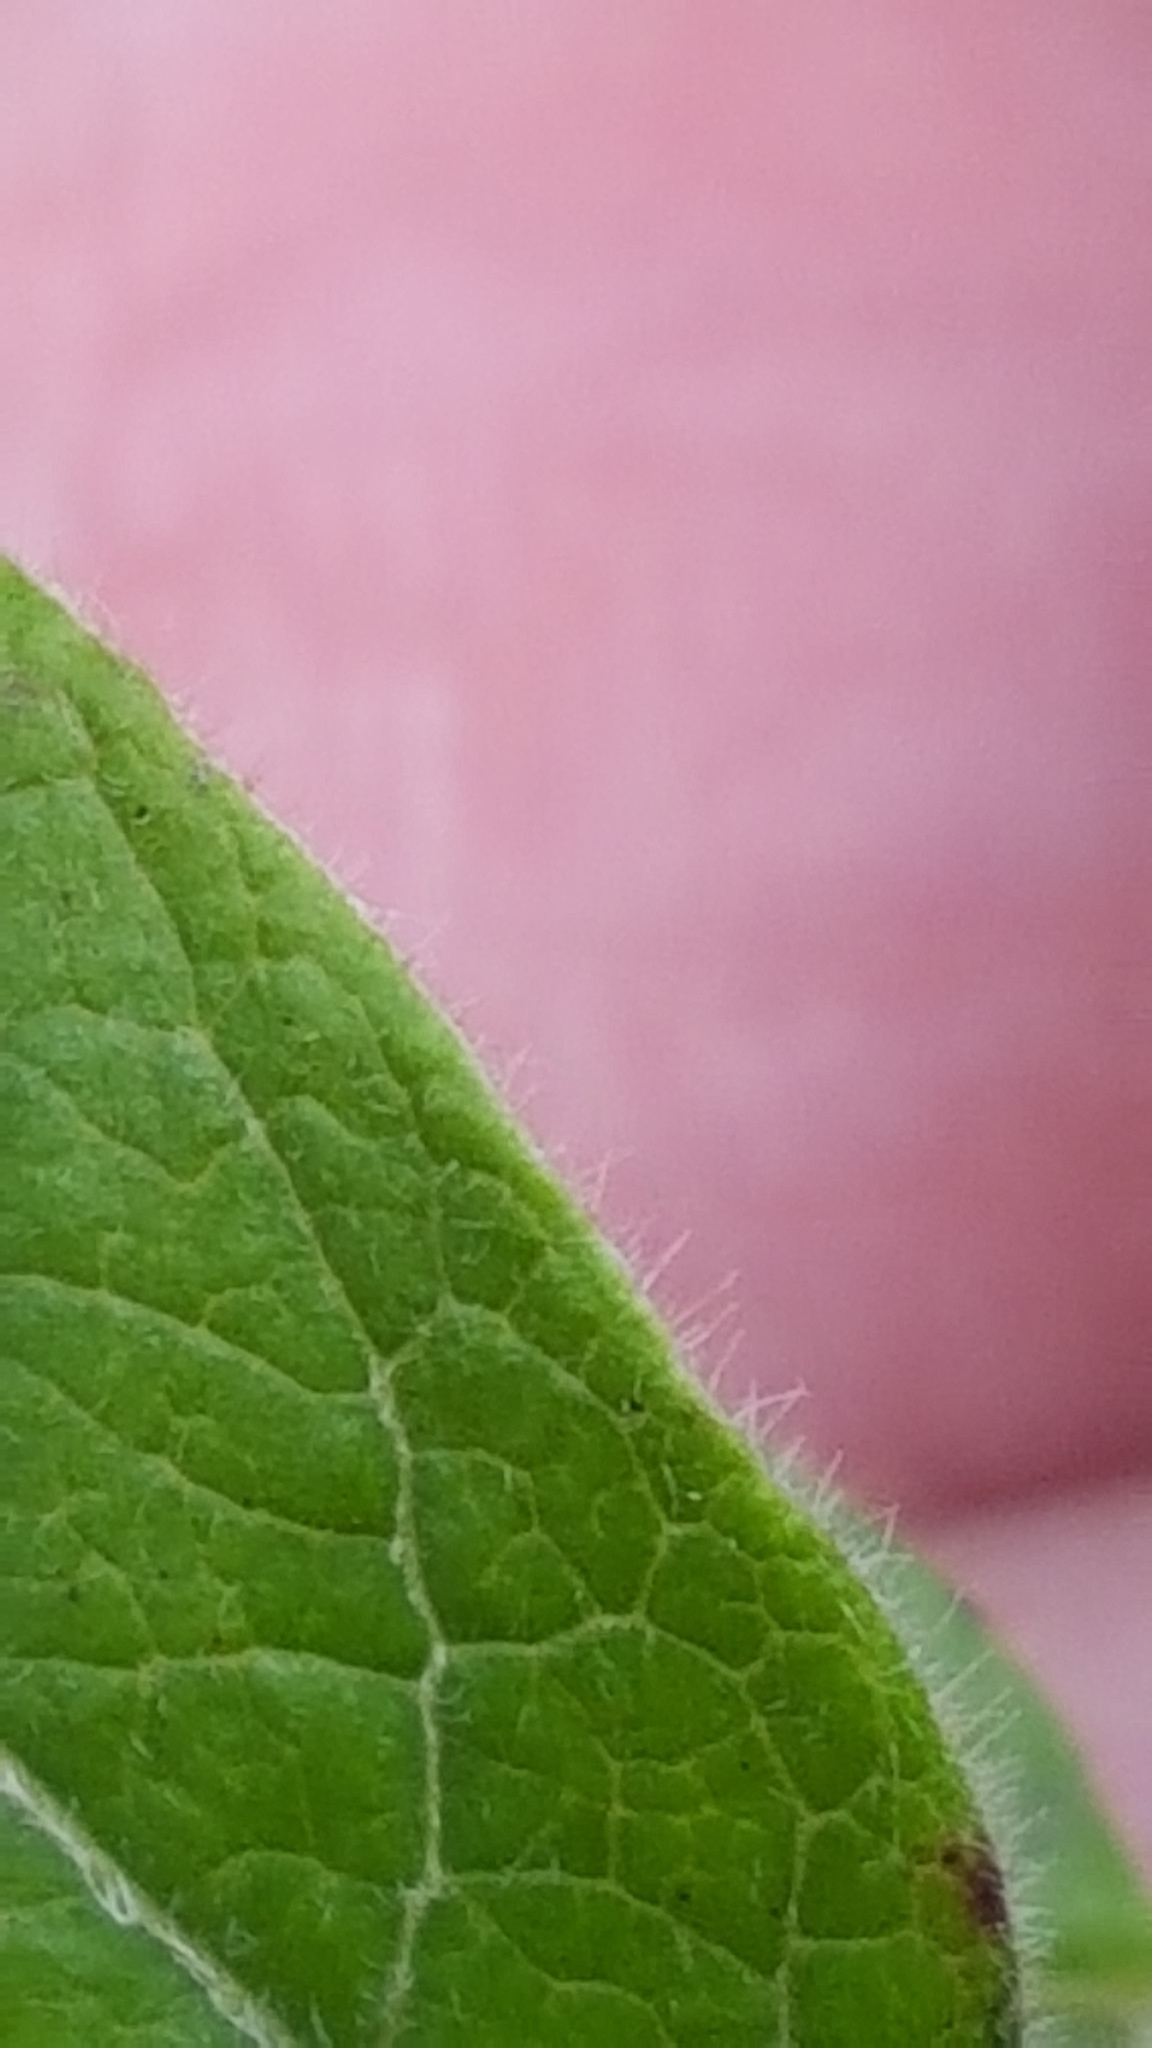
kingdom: Plantae
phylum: Tracheophyta
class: Magnoliopsida
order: Ericales
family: Ericaceae
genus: Vaccinium
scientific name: Vaccinium myrtilloides
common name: Canada blueberry
